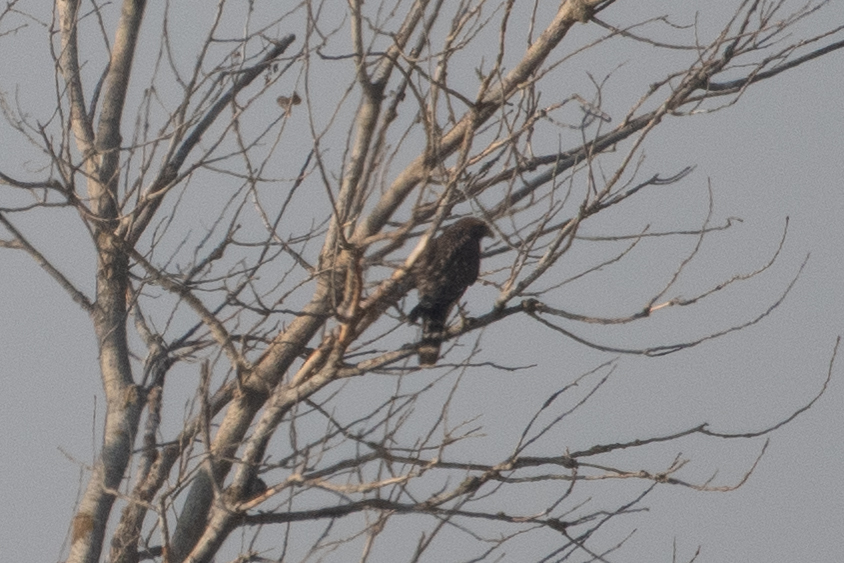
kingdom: Animalia
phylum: Chordata
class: Aves
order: Accipitriformes
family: Accipitridae
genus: Buteo
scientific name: Buteo lineatus
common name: Red-shouldered hawk
